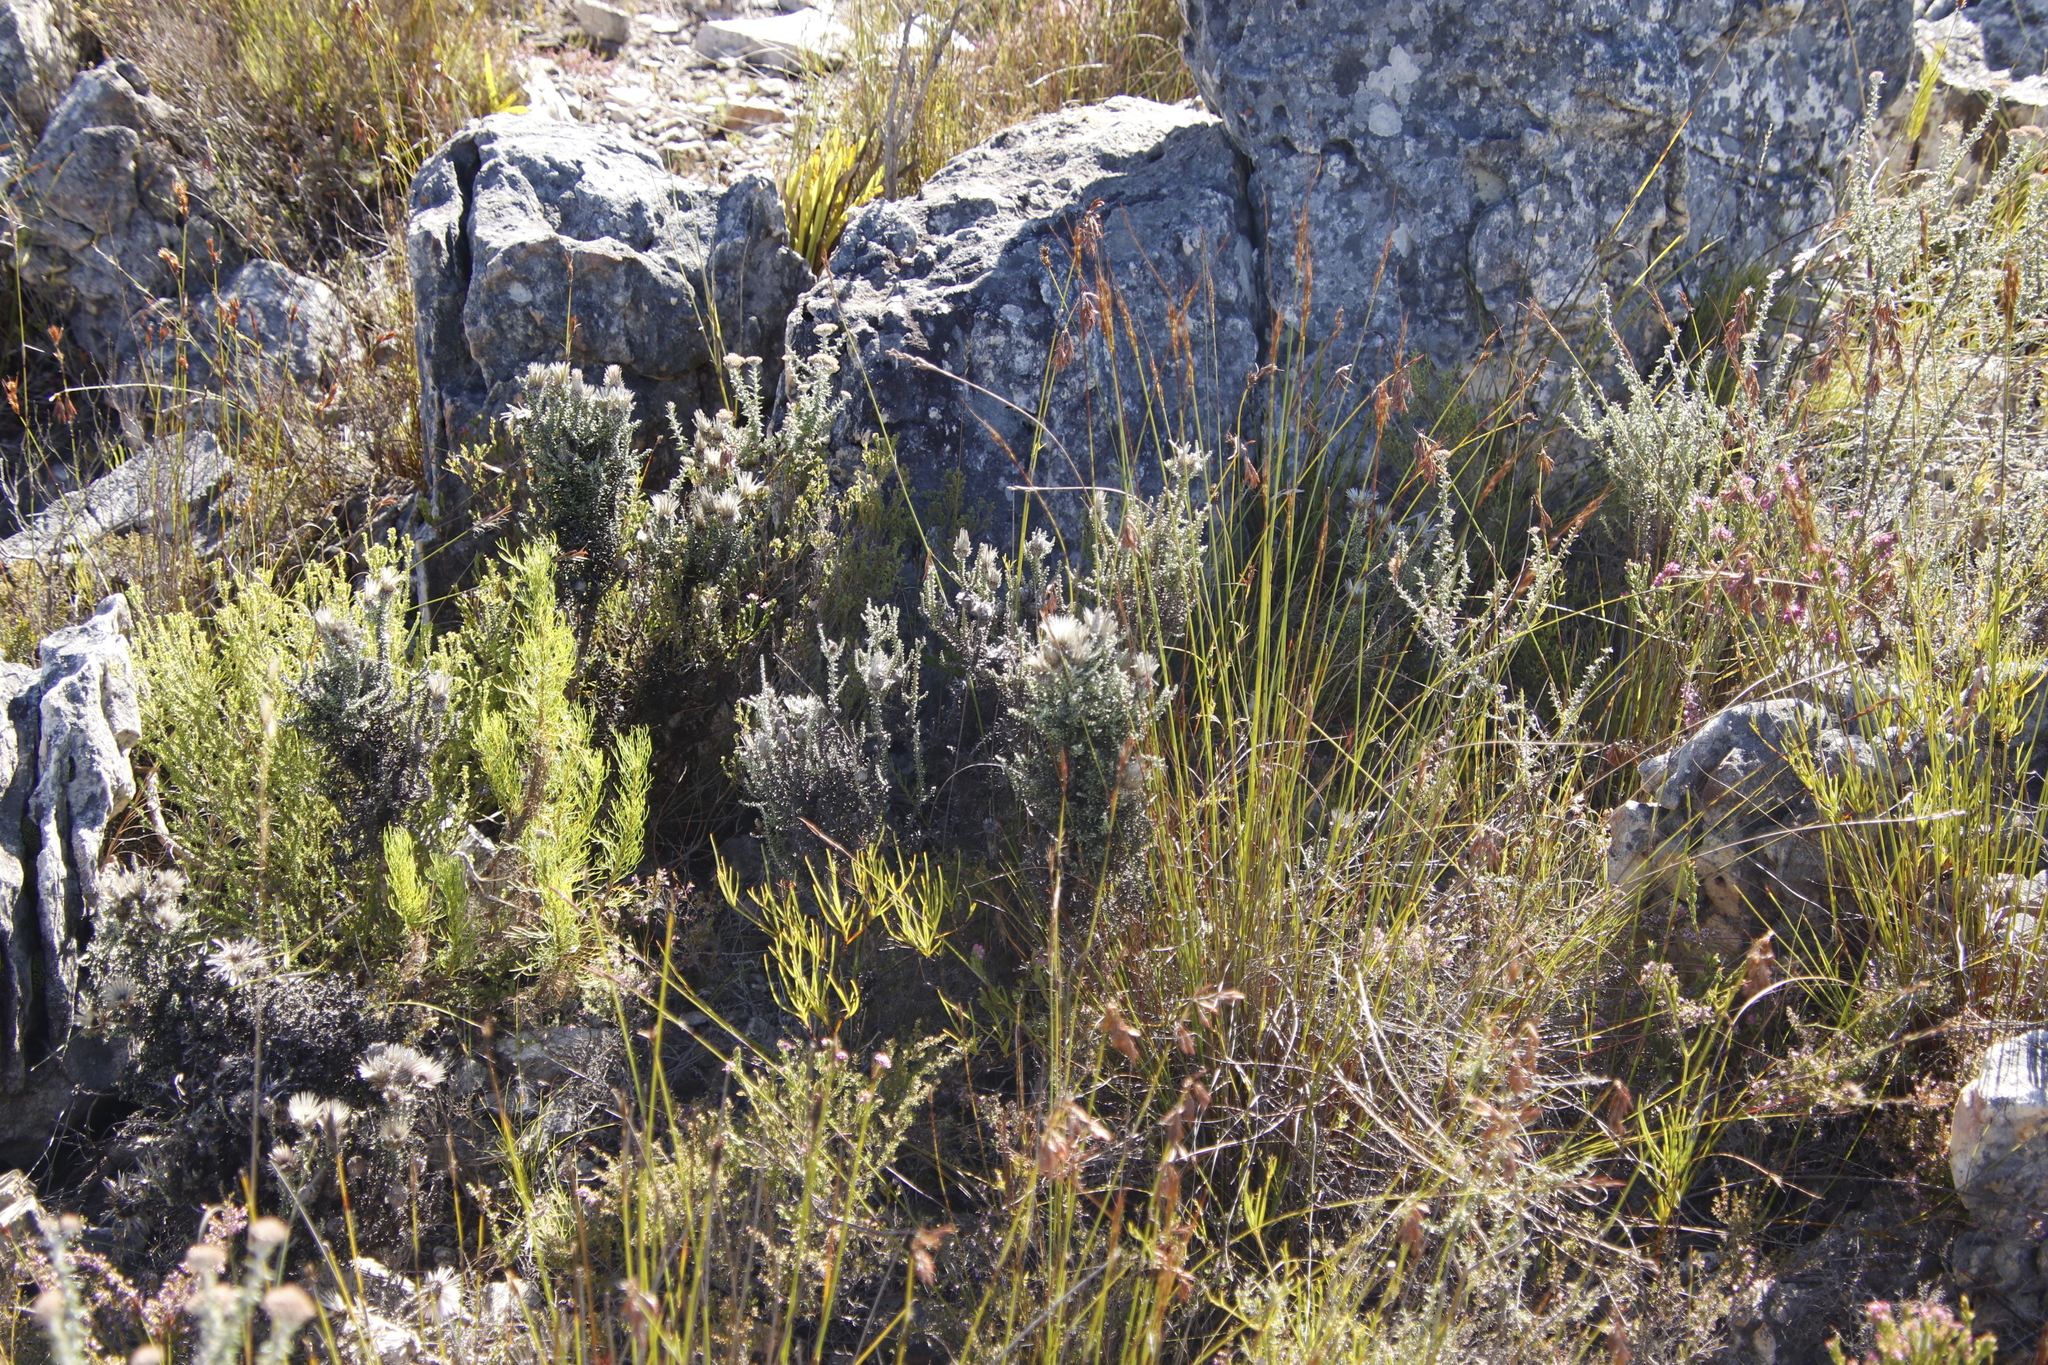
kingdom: Plantae
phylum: Tracheophyta
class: Magnoliopsida
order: Asterales
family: Asteraceae
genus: Phaenocoma
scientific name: Phaenocoma prolifera
